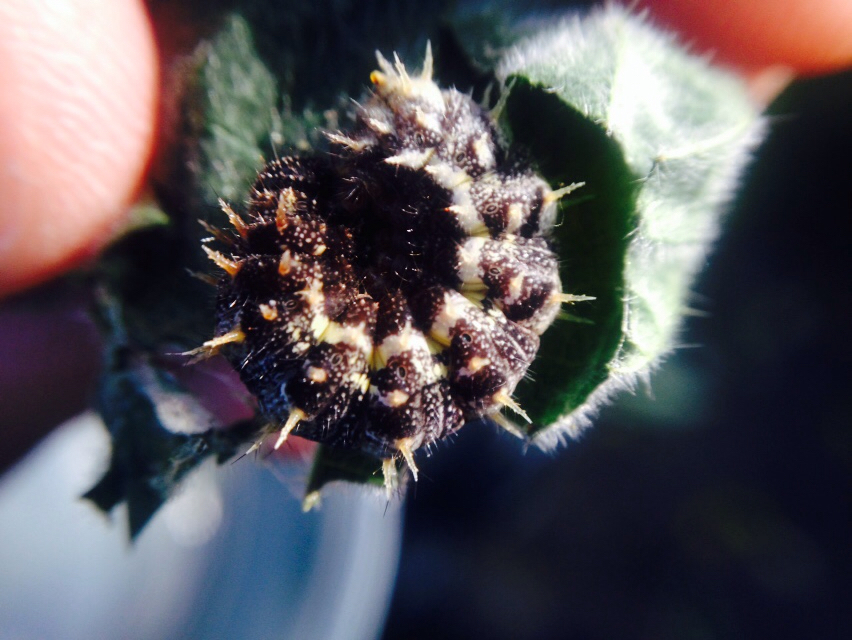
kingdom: Animalia
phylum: Arthropoda
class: Insecta
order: Lepidoptera
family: Nymphalidae
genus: Vanessa
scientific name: Vanessa atalanta
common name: Red admiral
